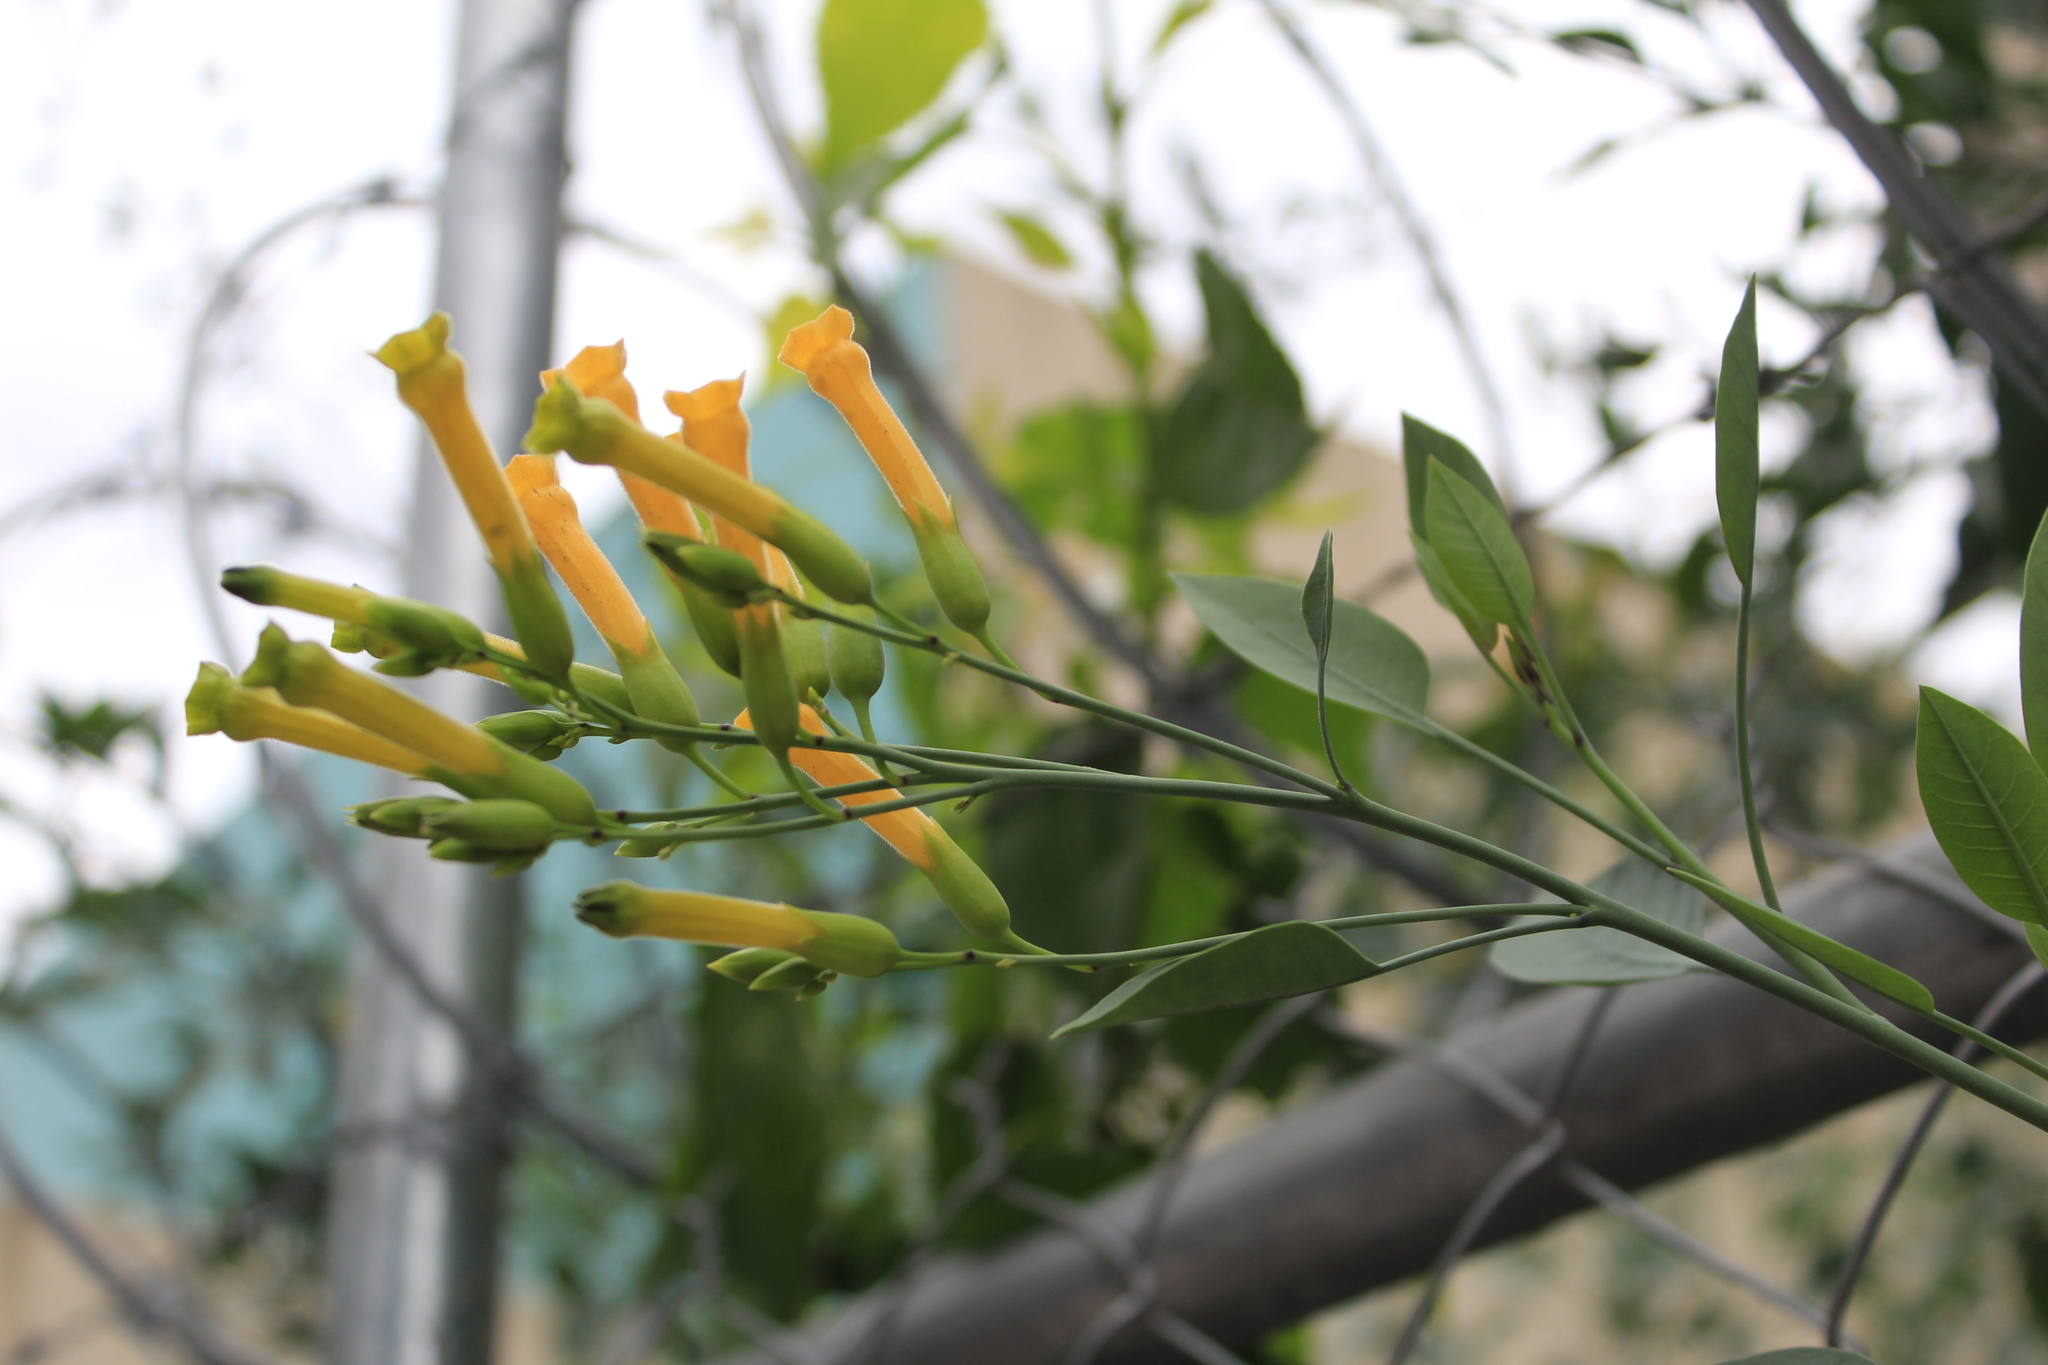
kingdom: Plantae
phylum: Tracheophyta
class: Magnoliopsida
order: Solanales
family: Solanaceae
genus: Nicotiana
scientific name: Nicotiana glauca
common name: Tree tobacco
